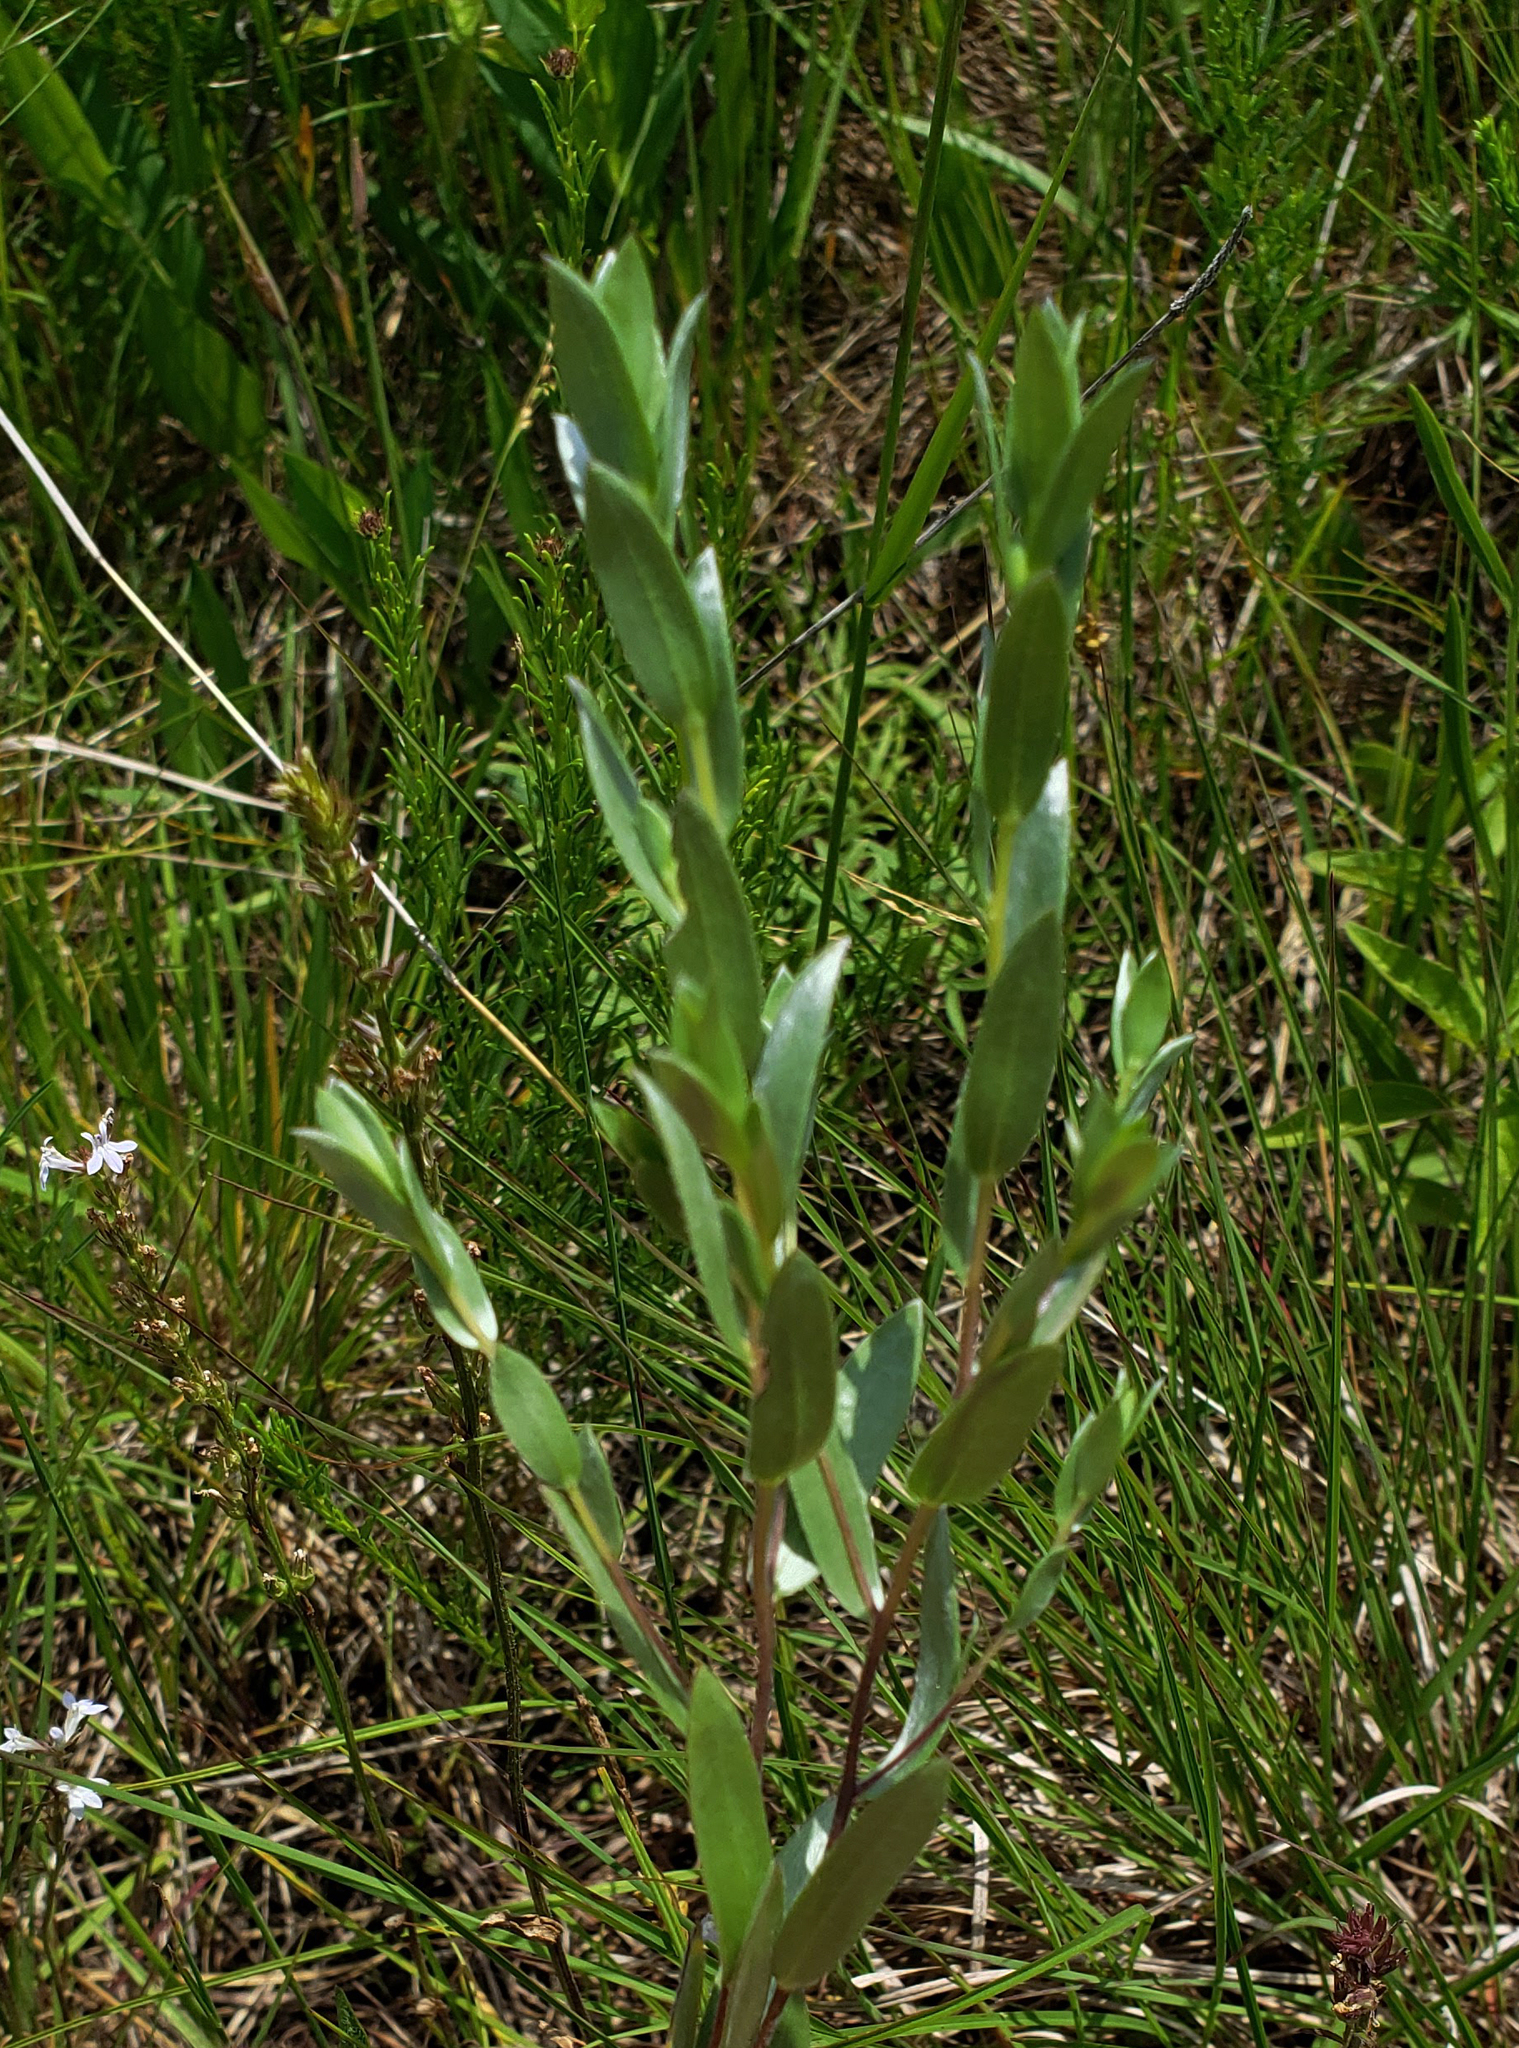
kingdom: Plantae
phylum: Tracheophyta
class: Magnoliopsida
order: Asterales
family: Asteraceae
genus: Symphyotrichum
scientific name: Symphyotrichum sericeum
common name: Silky aster
